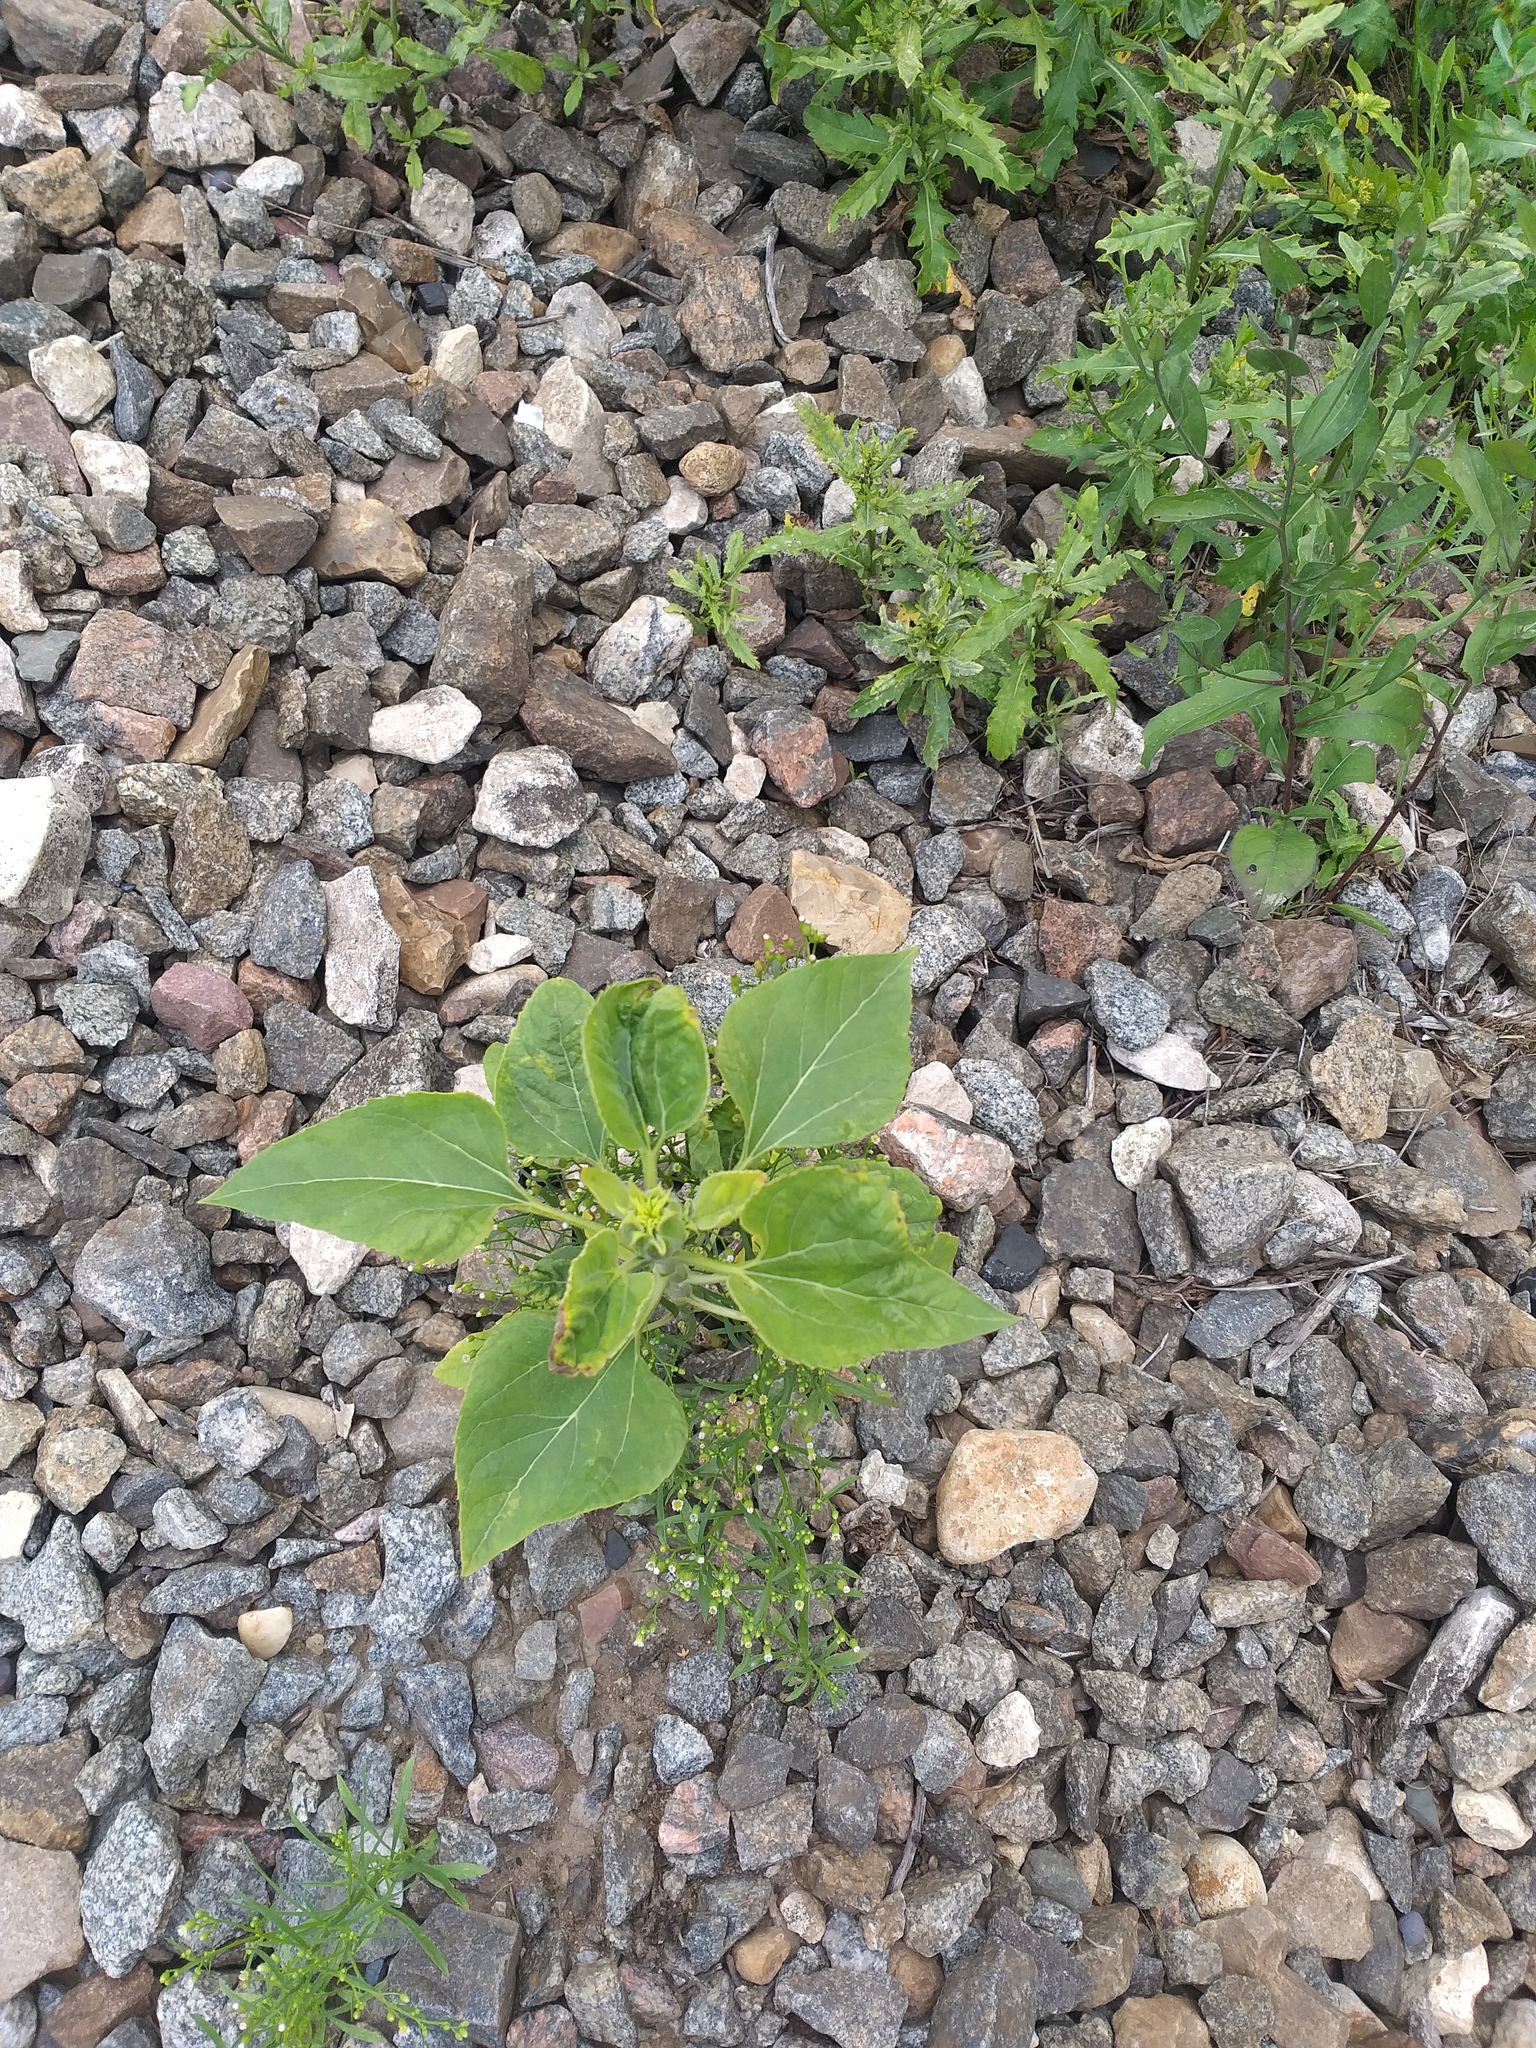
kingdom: Plantae
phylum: Tracheophyta
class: Magnoliopsida
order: Asterales
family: Asteraceae
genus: Helianthus
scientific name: Helianthus annuus
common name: Sunflower
